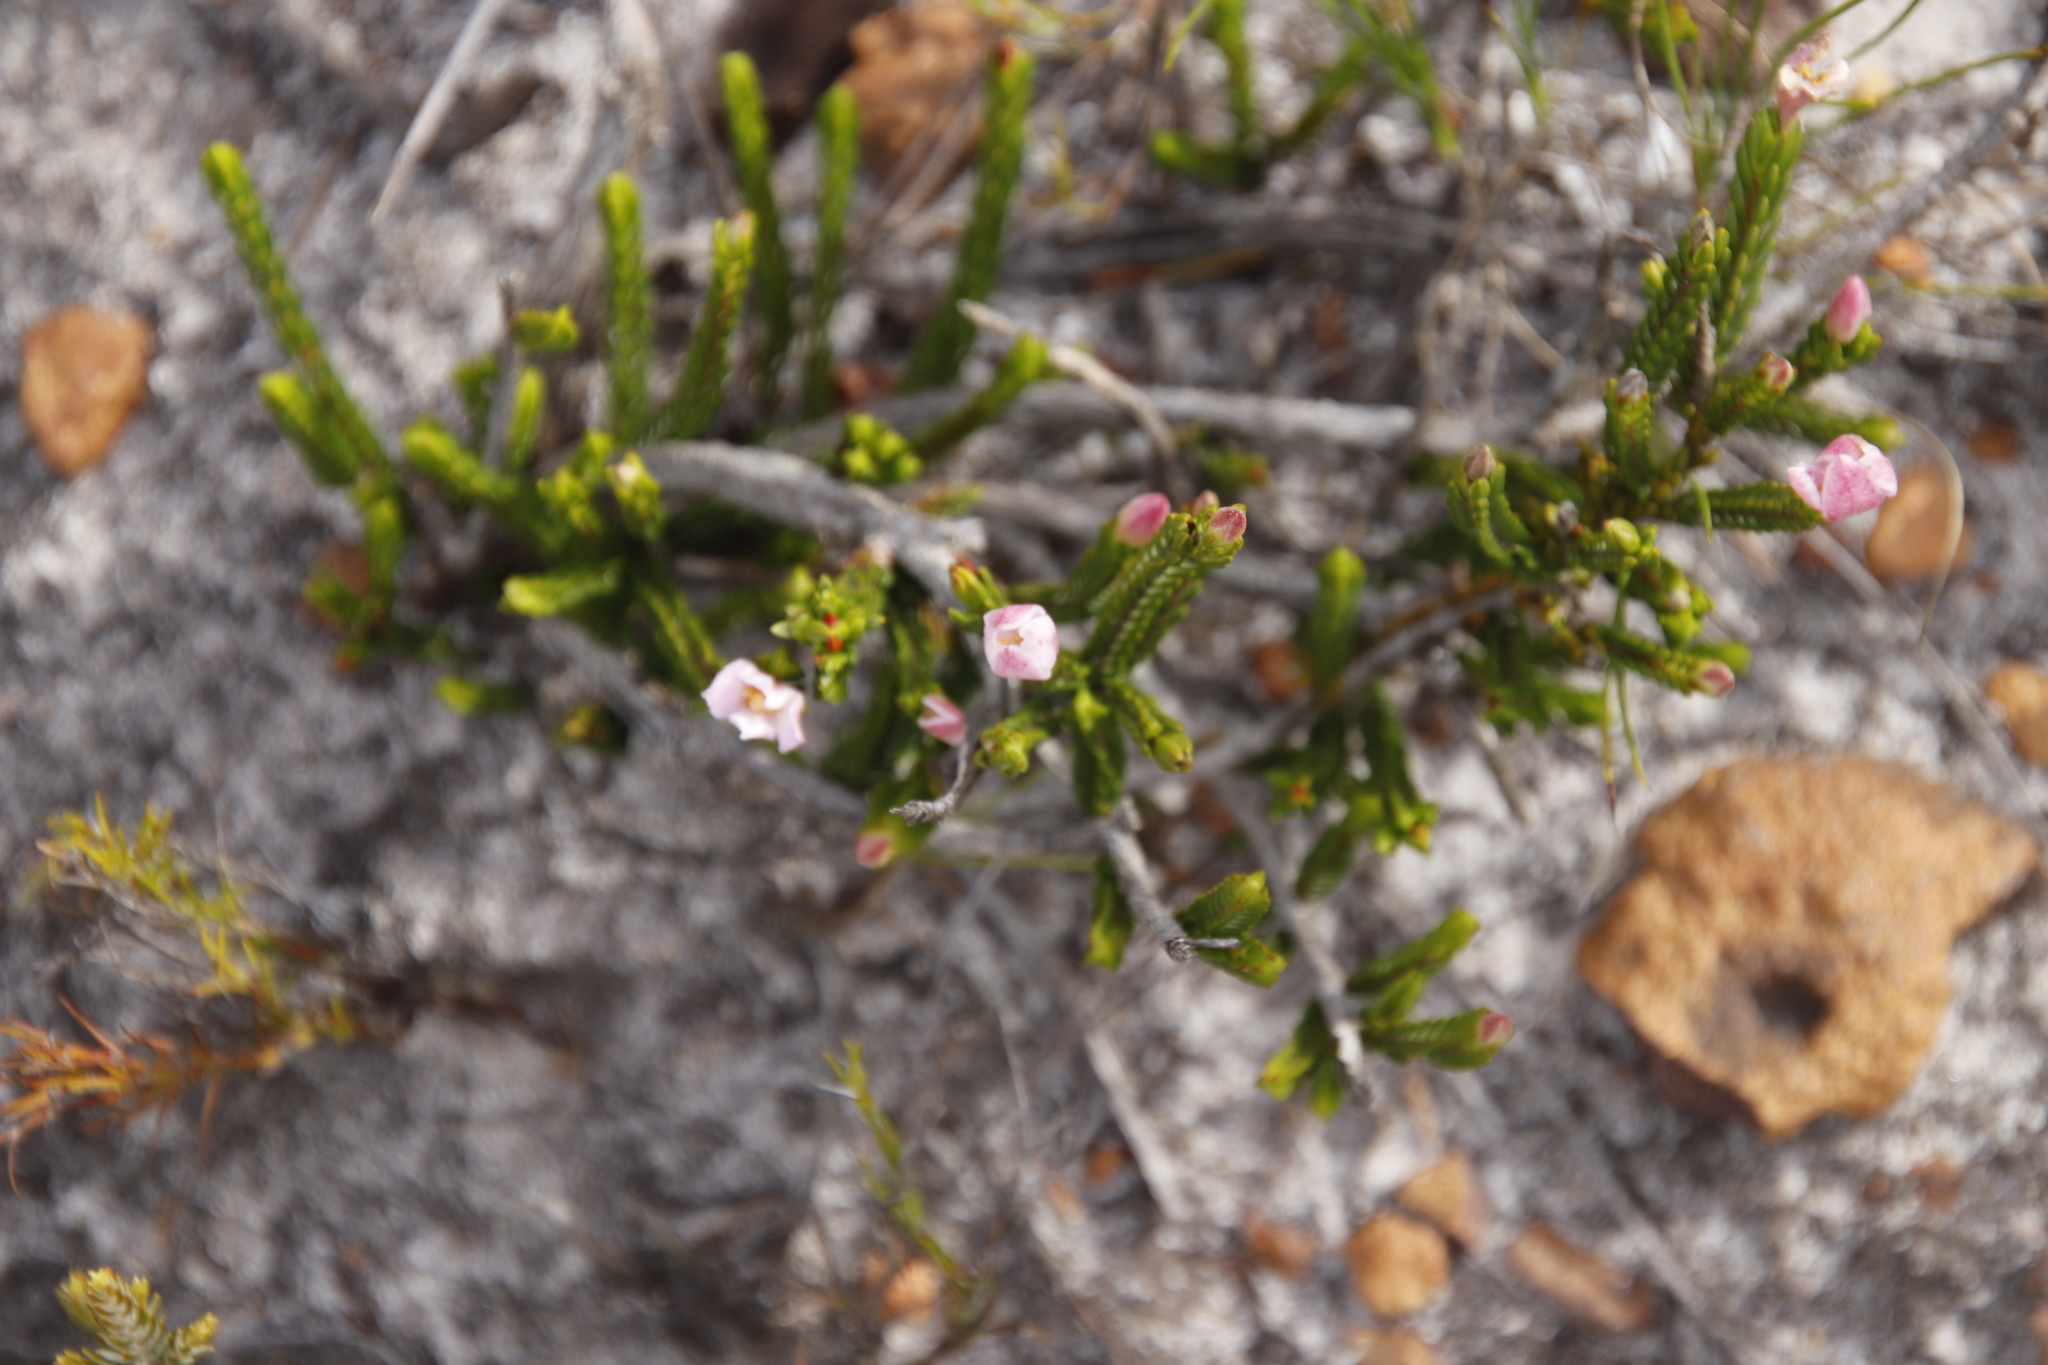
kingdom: Plantae
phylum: Tracheophyta
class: Magnoliopsida
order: Malvales
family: Thymelaeaceae
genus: Lachnaea
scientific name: Lachnaea grandiflora
